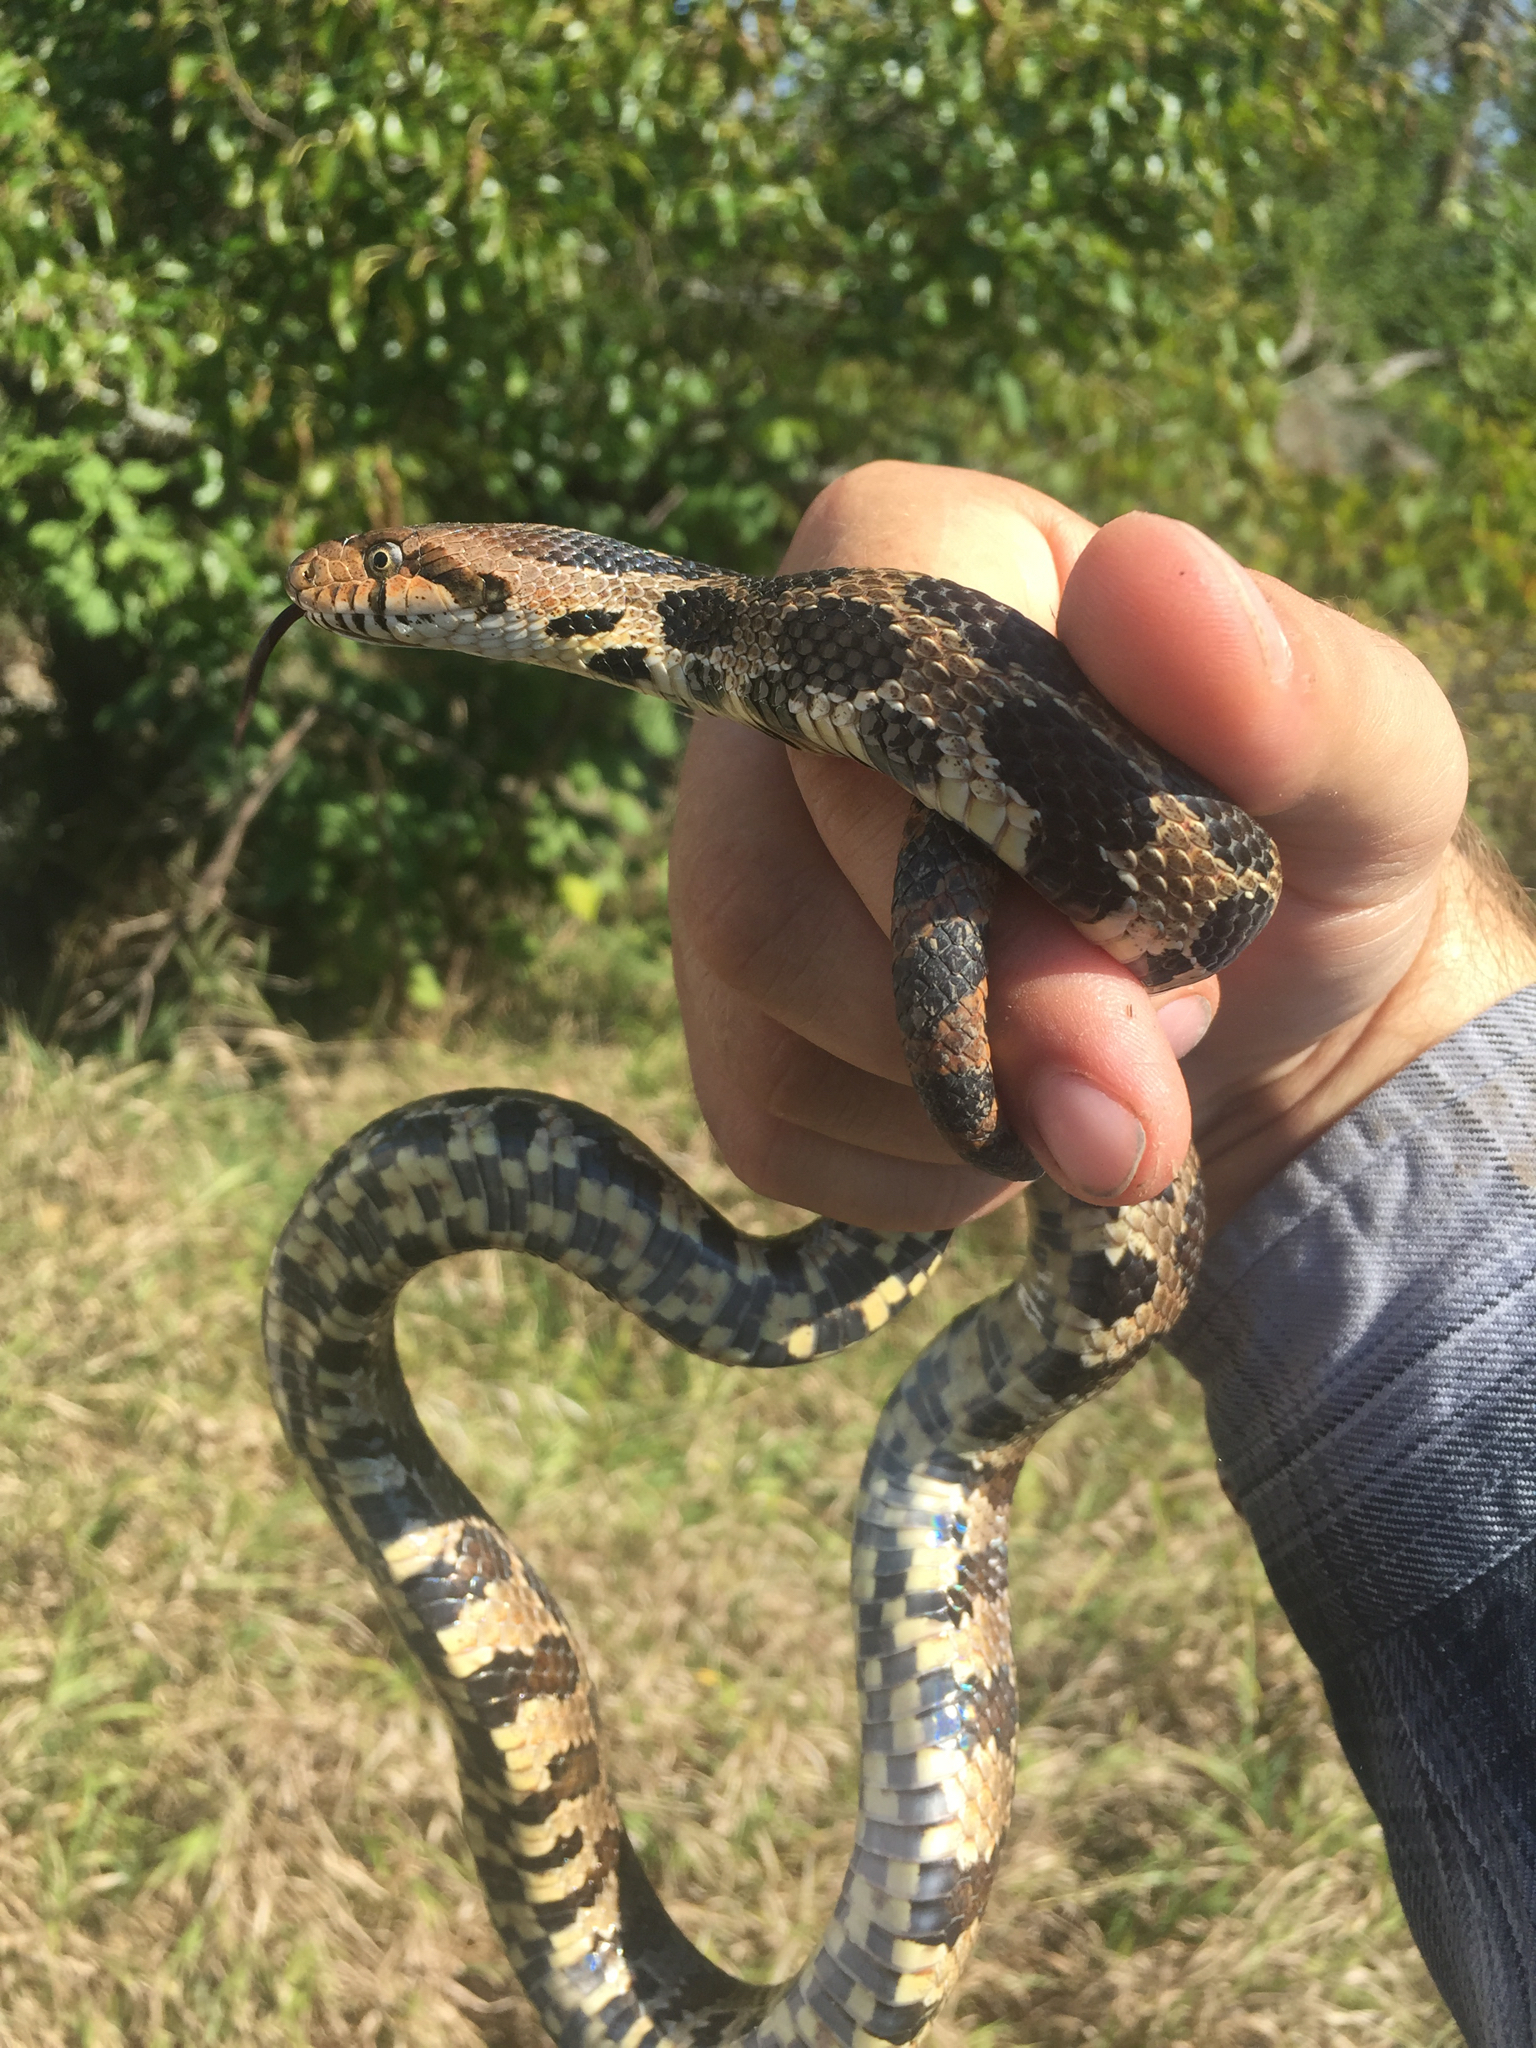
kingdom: Animalia
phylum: Chordata
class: Squamata
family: Colubridae
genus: Pantherophis
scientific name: Pantherophis vulpinus
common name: Eastern fox snake
